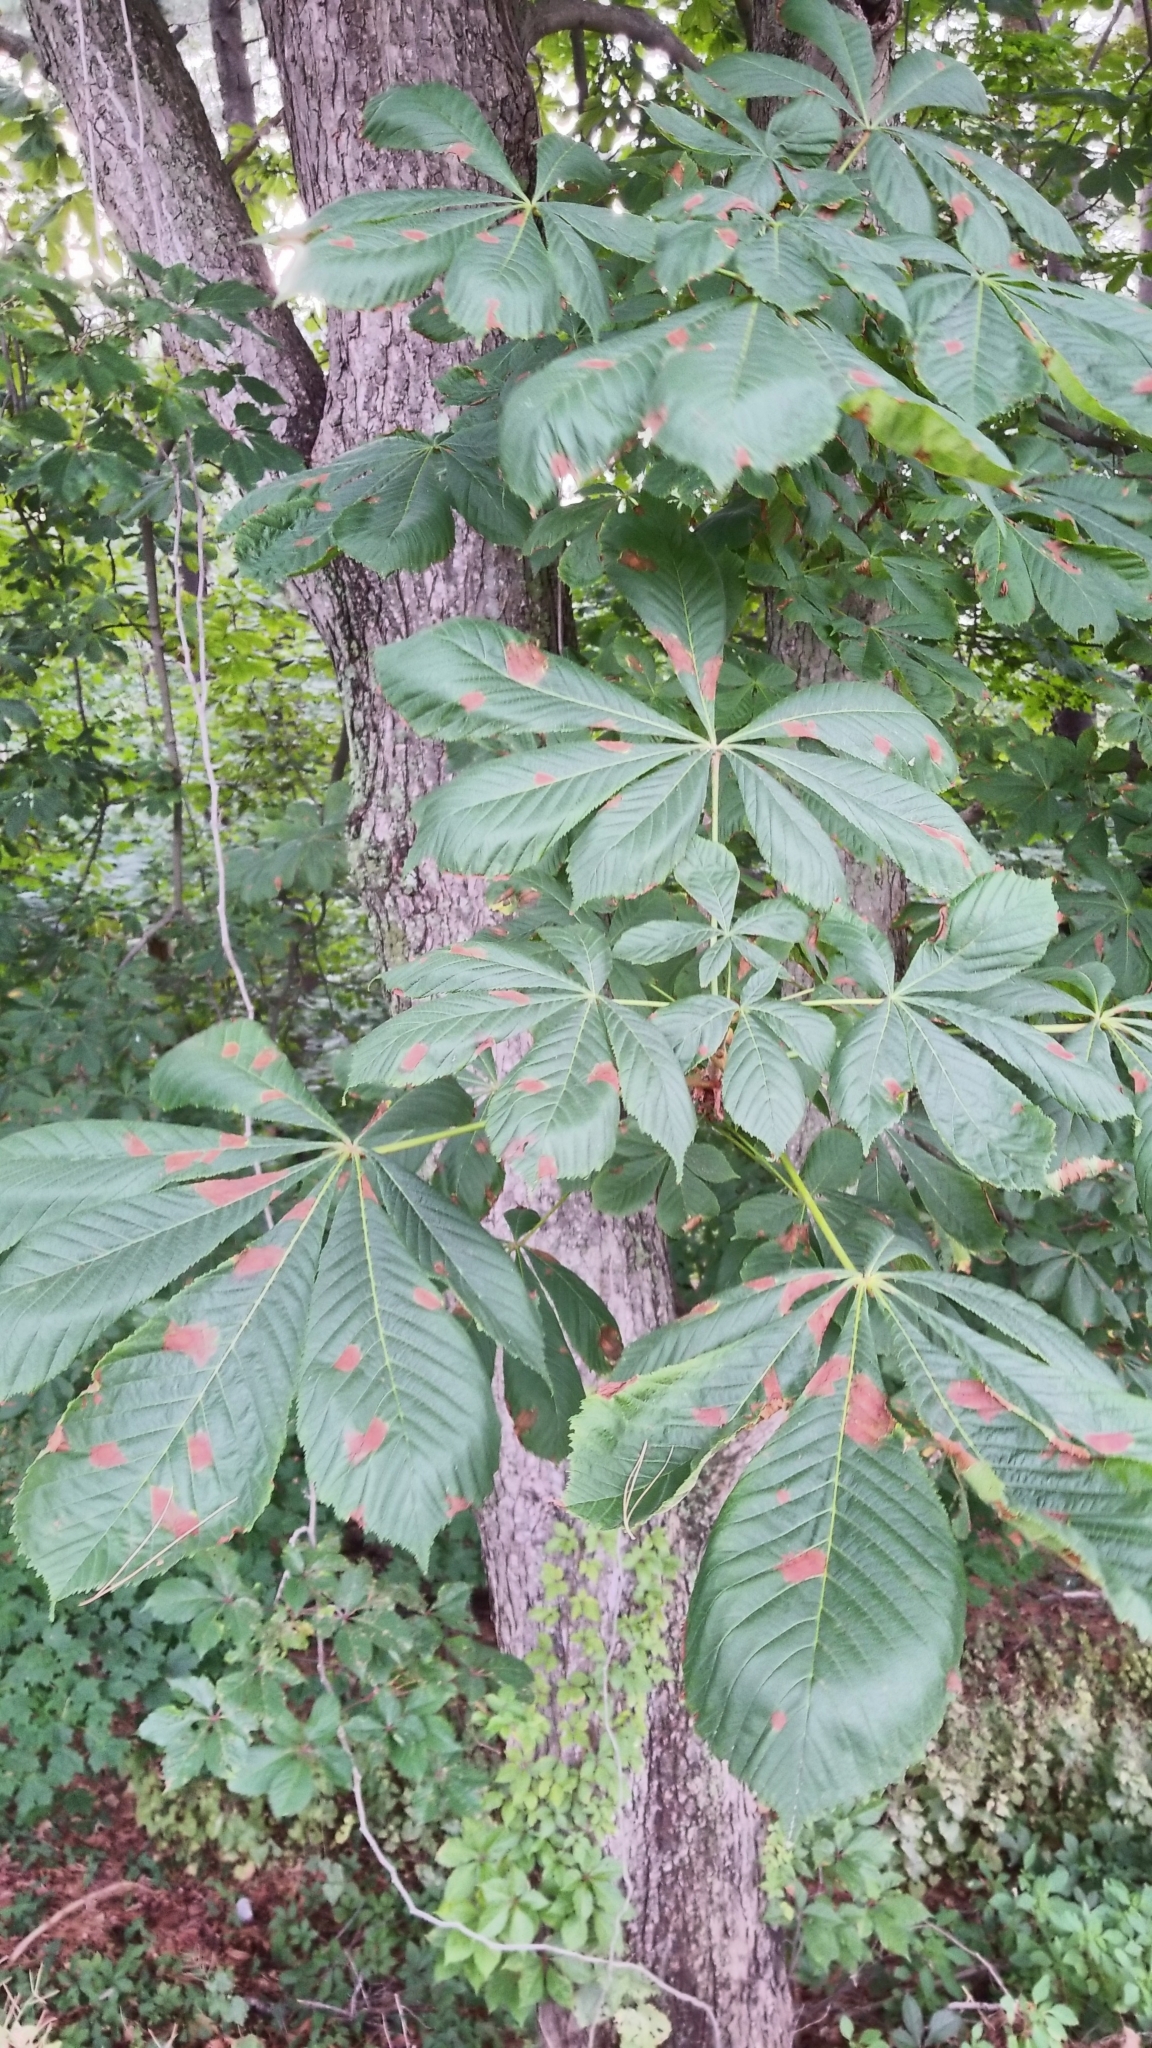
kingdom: Plantae
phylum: Tracheophyta
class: Magnoliopsida
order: Sapindales
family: Sapindaceae
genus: Aesculus
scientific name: Aesculus hippocastanum
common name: Horse-chestnut
